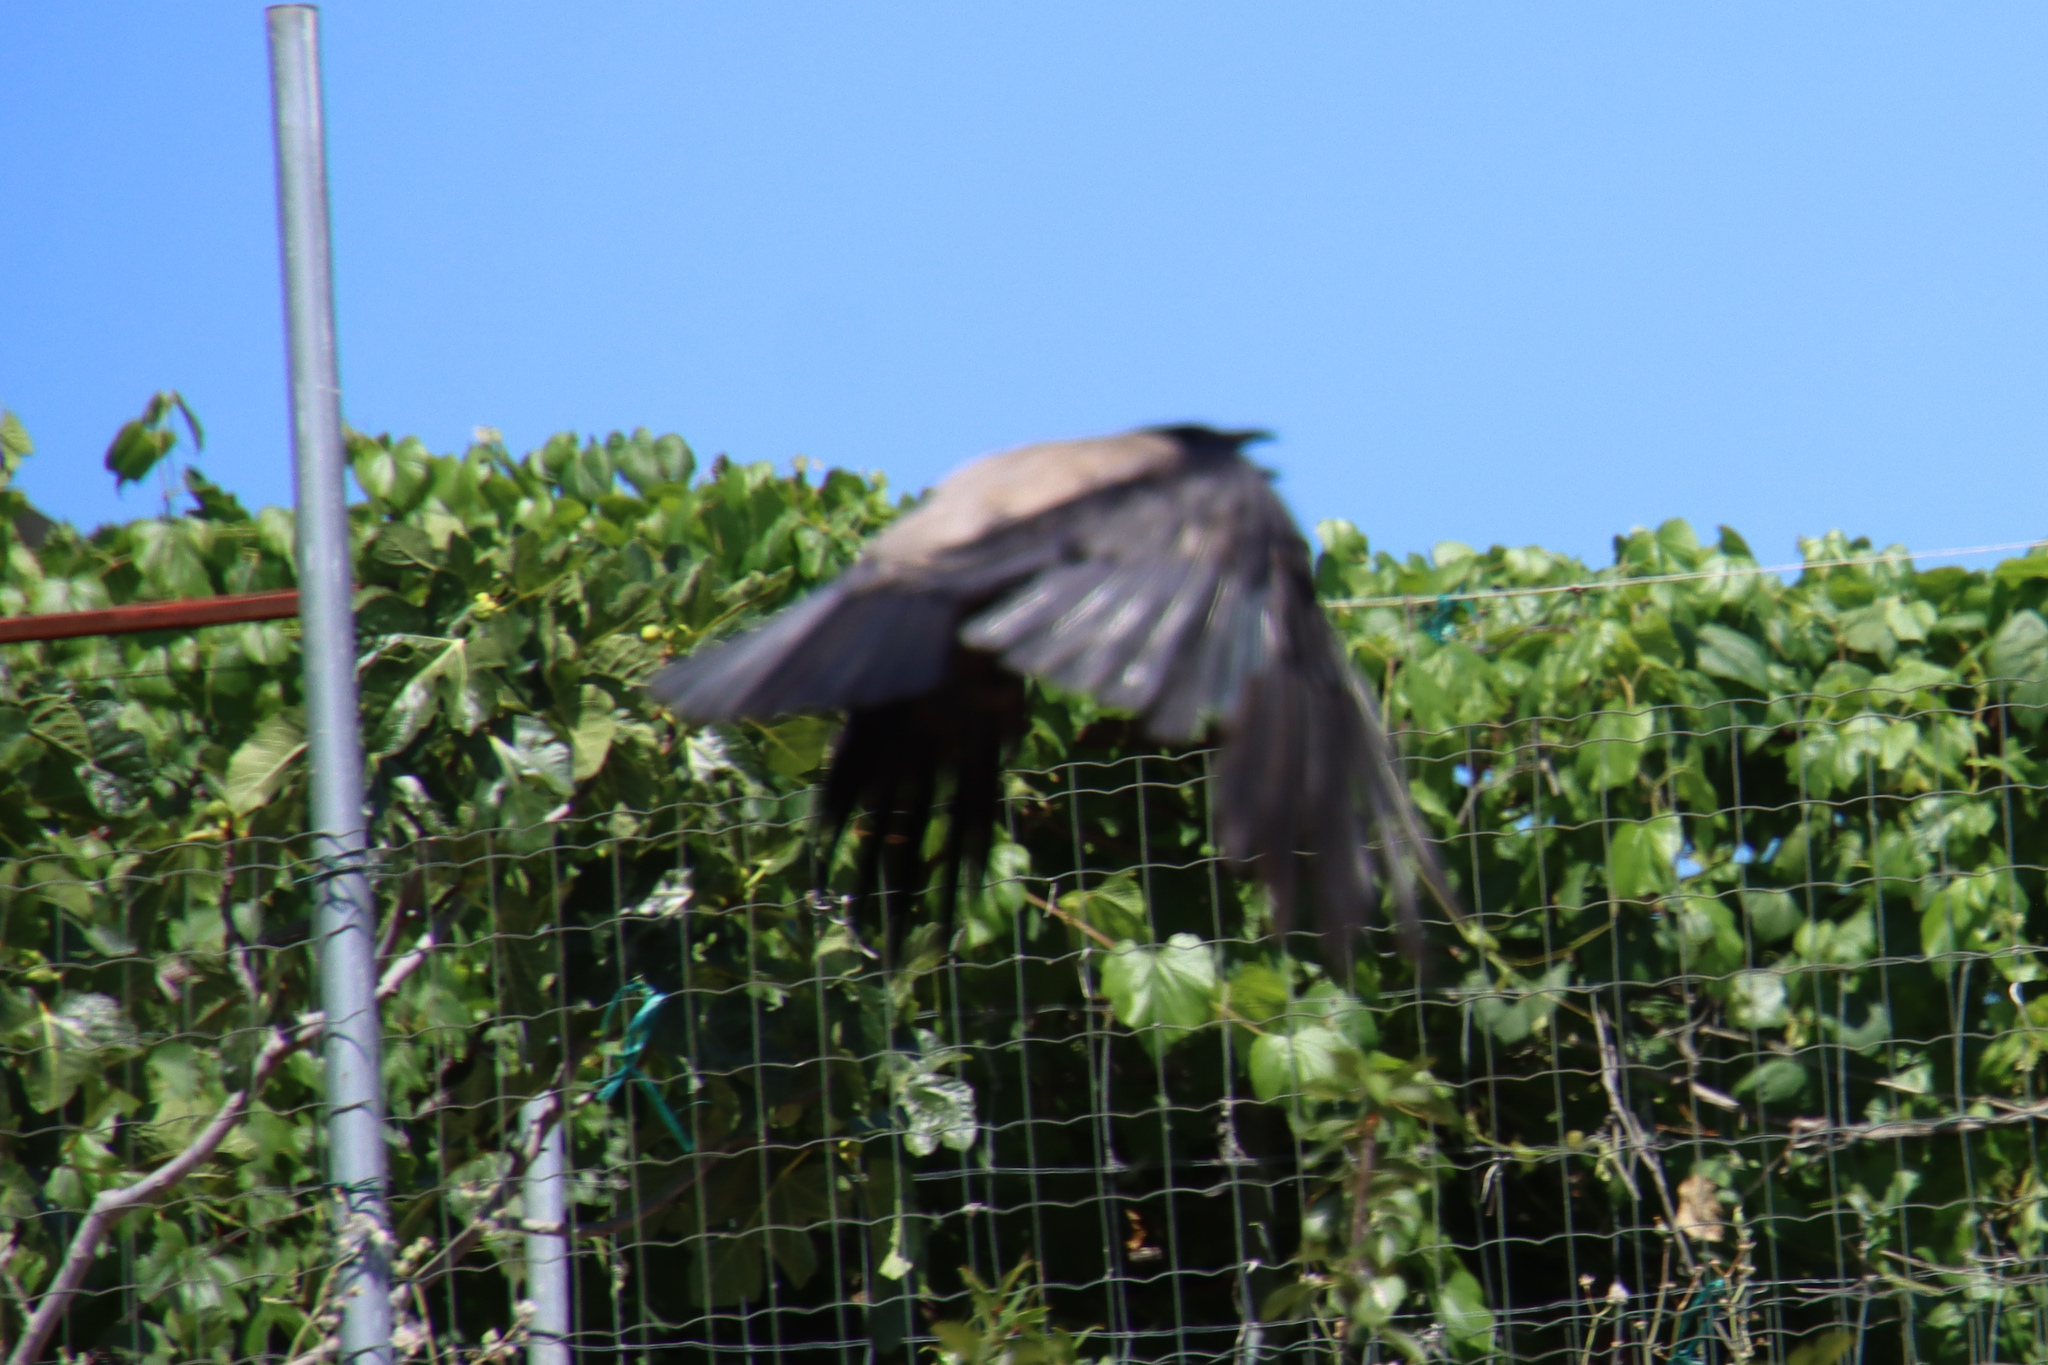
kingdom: Animalia
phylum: Chordata
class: Aves
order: Passeriformes
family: Corvidae
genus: Corvus
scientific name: Corvus cornix
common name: Hooded crow
